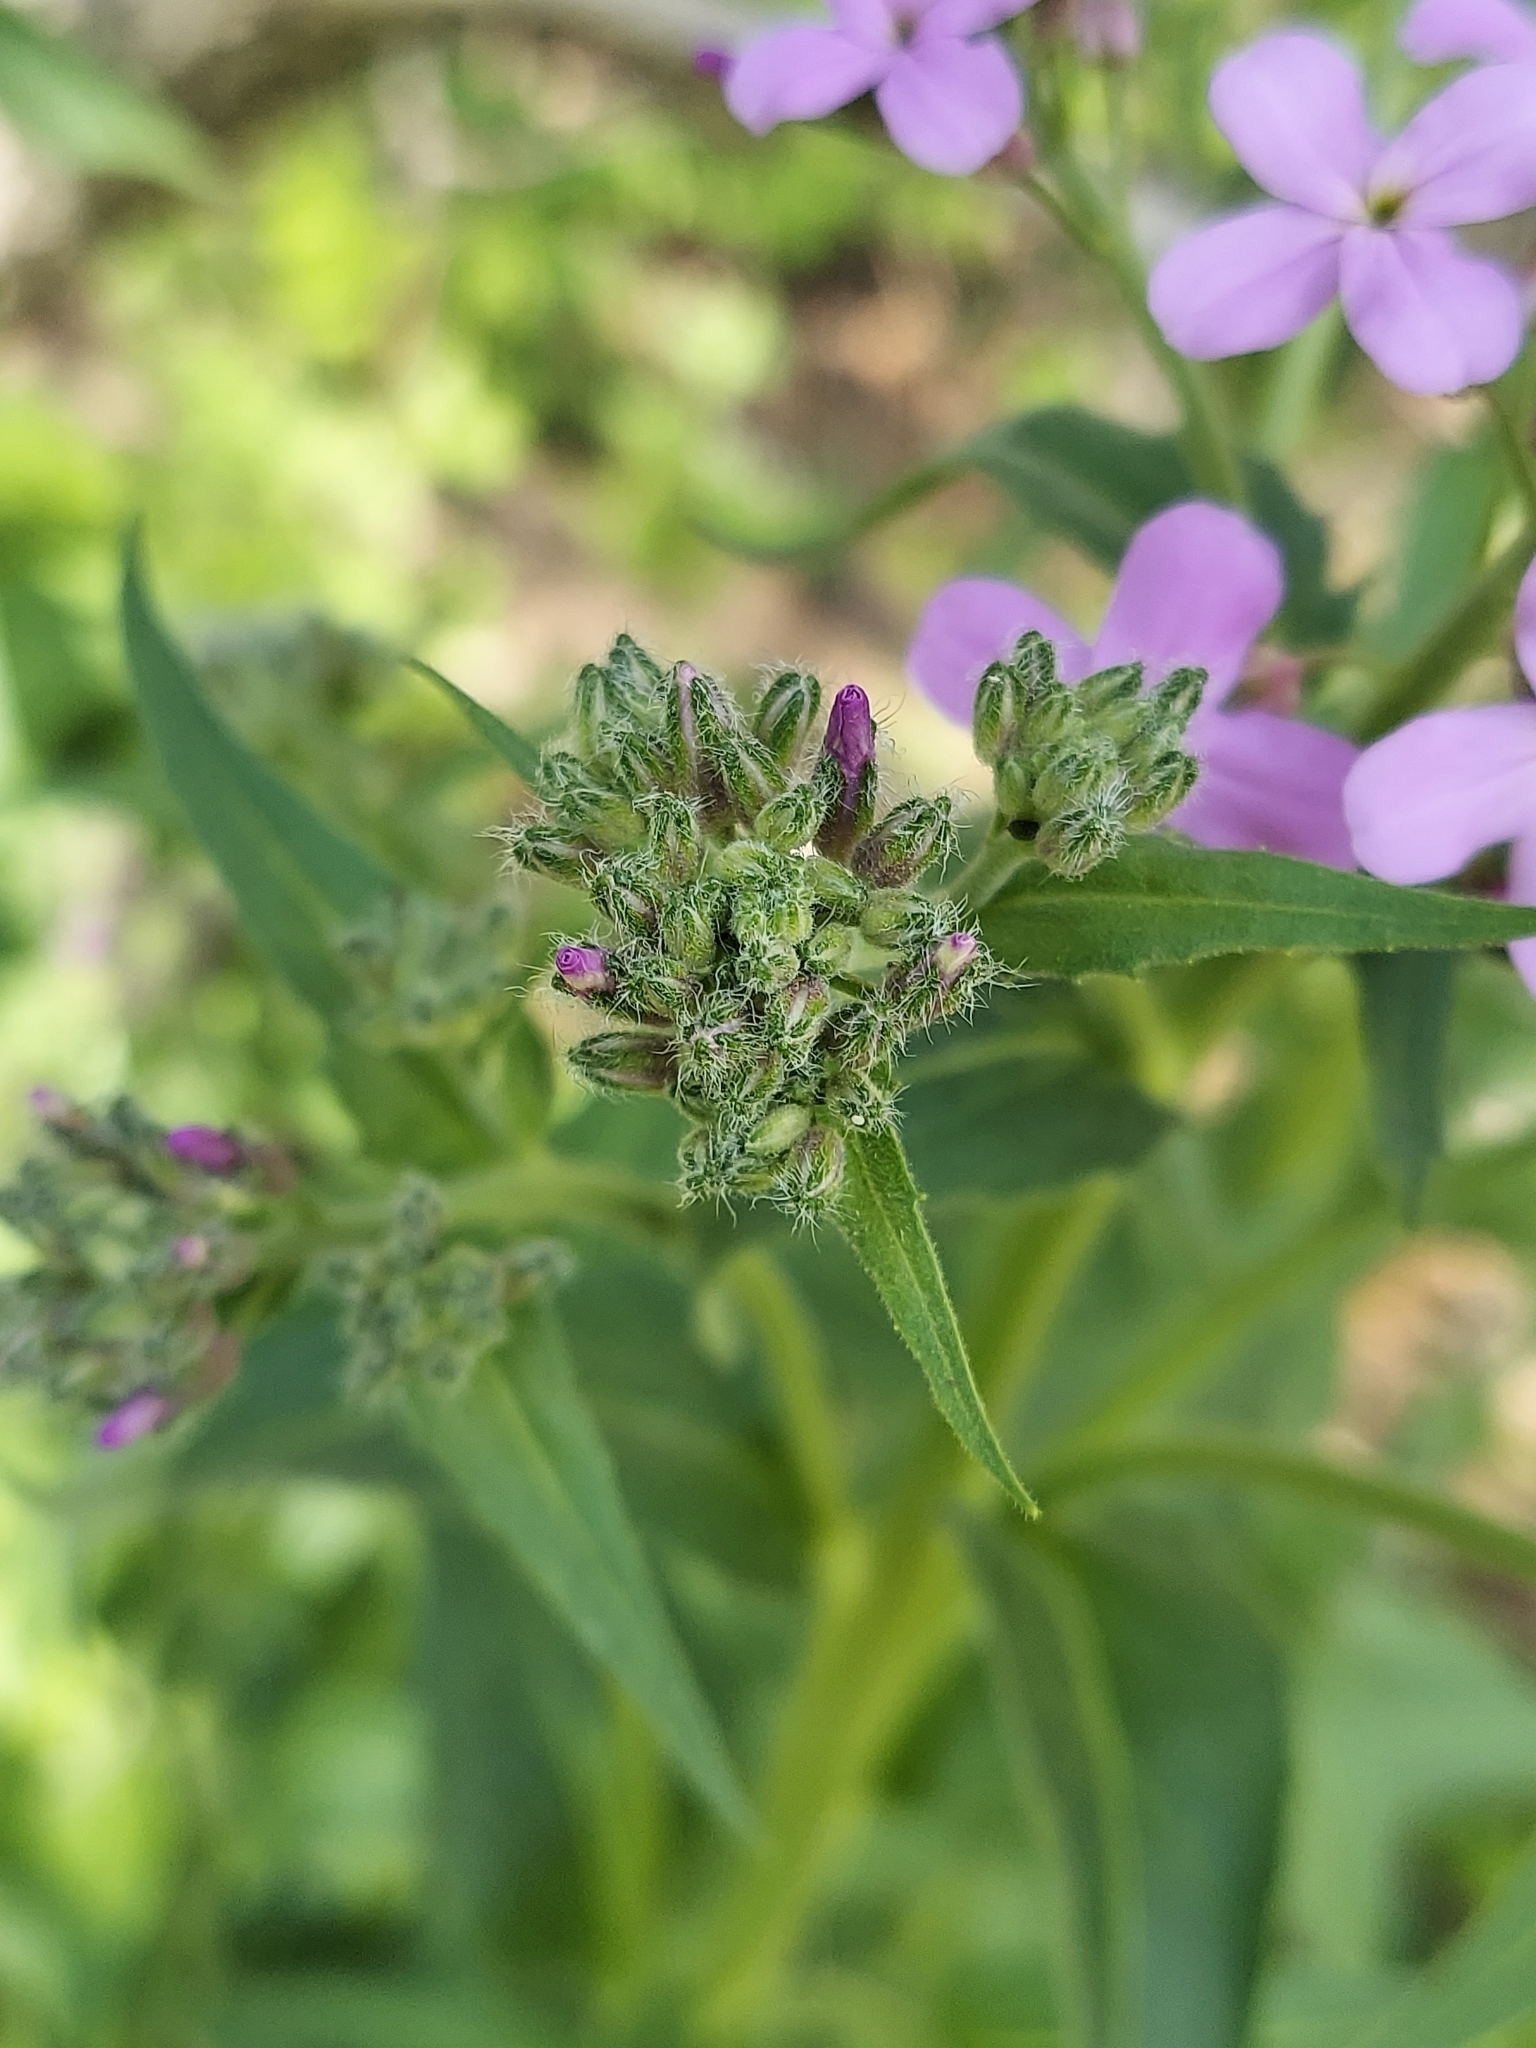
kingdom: Plantae
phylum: Tracheophyta
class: Magnoliopsida
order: Brassicales
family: Brassicaceae
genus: Hesperis
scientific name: Hesperis matronalis
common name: Dame's-violet
